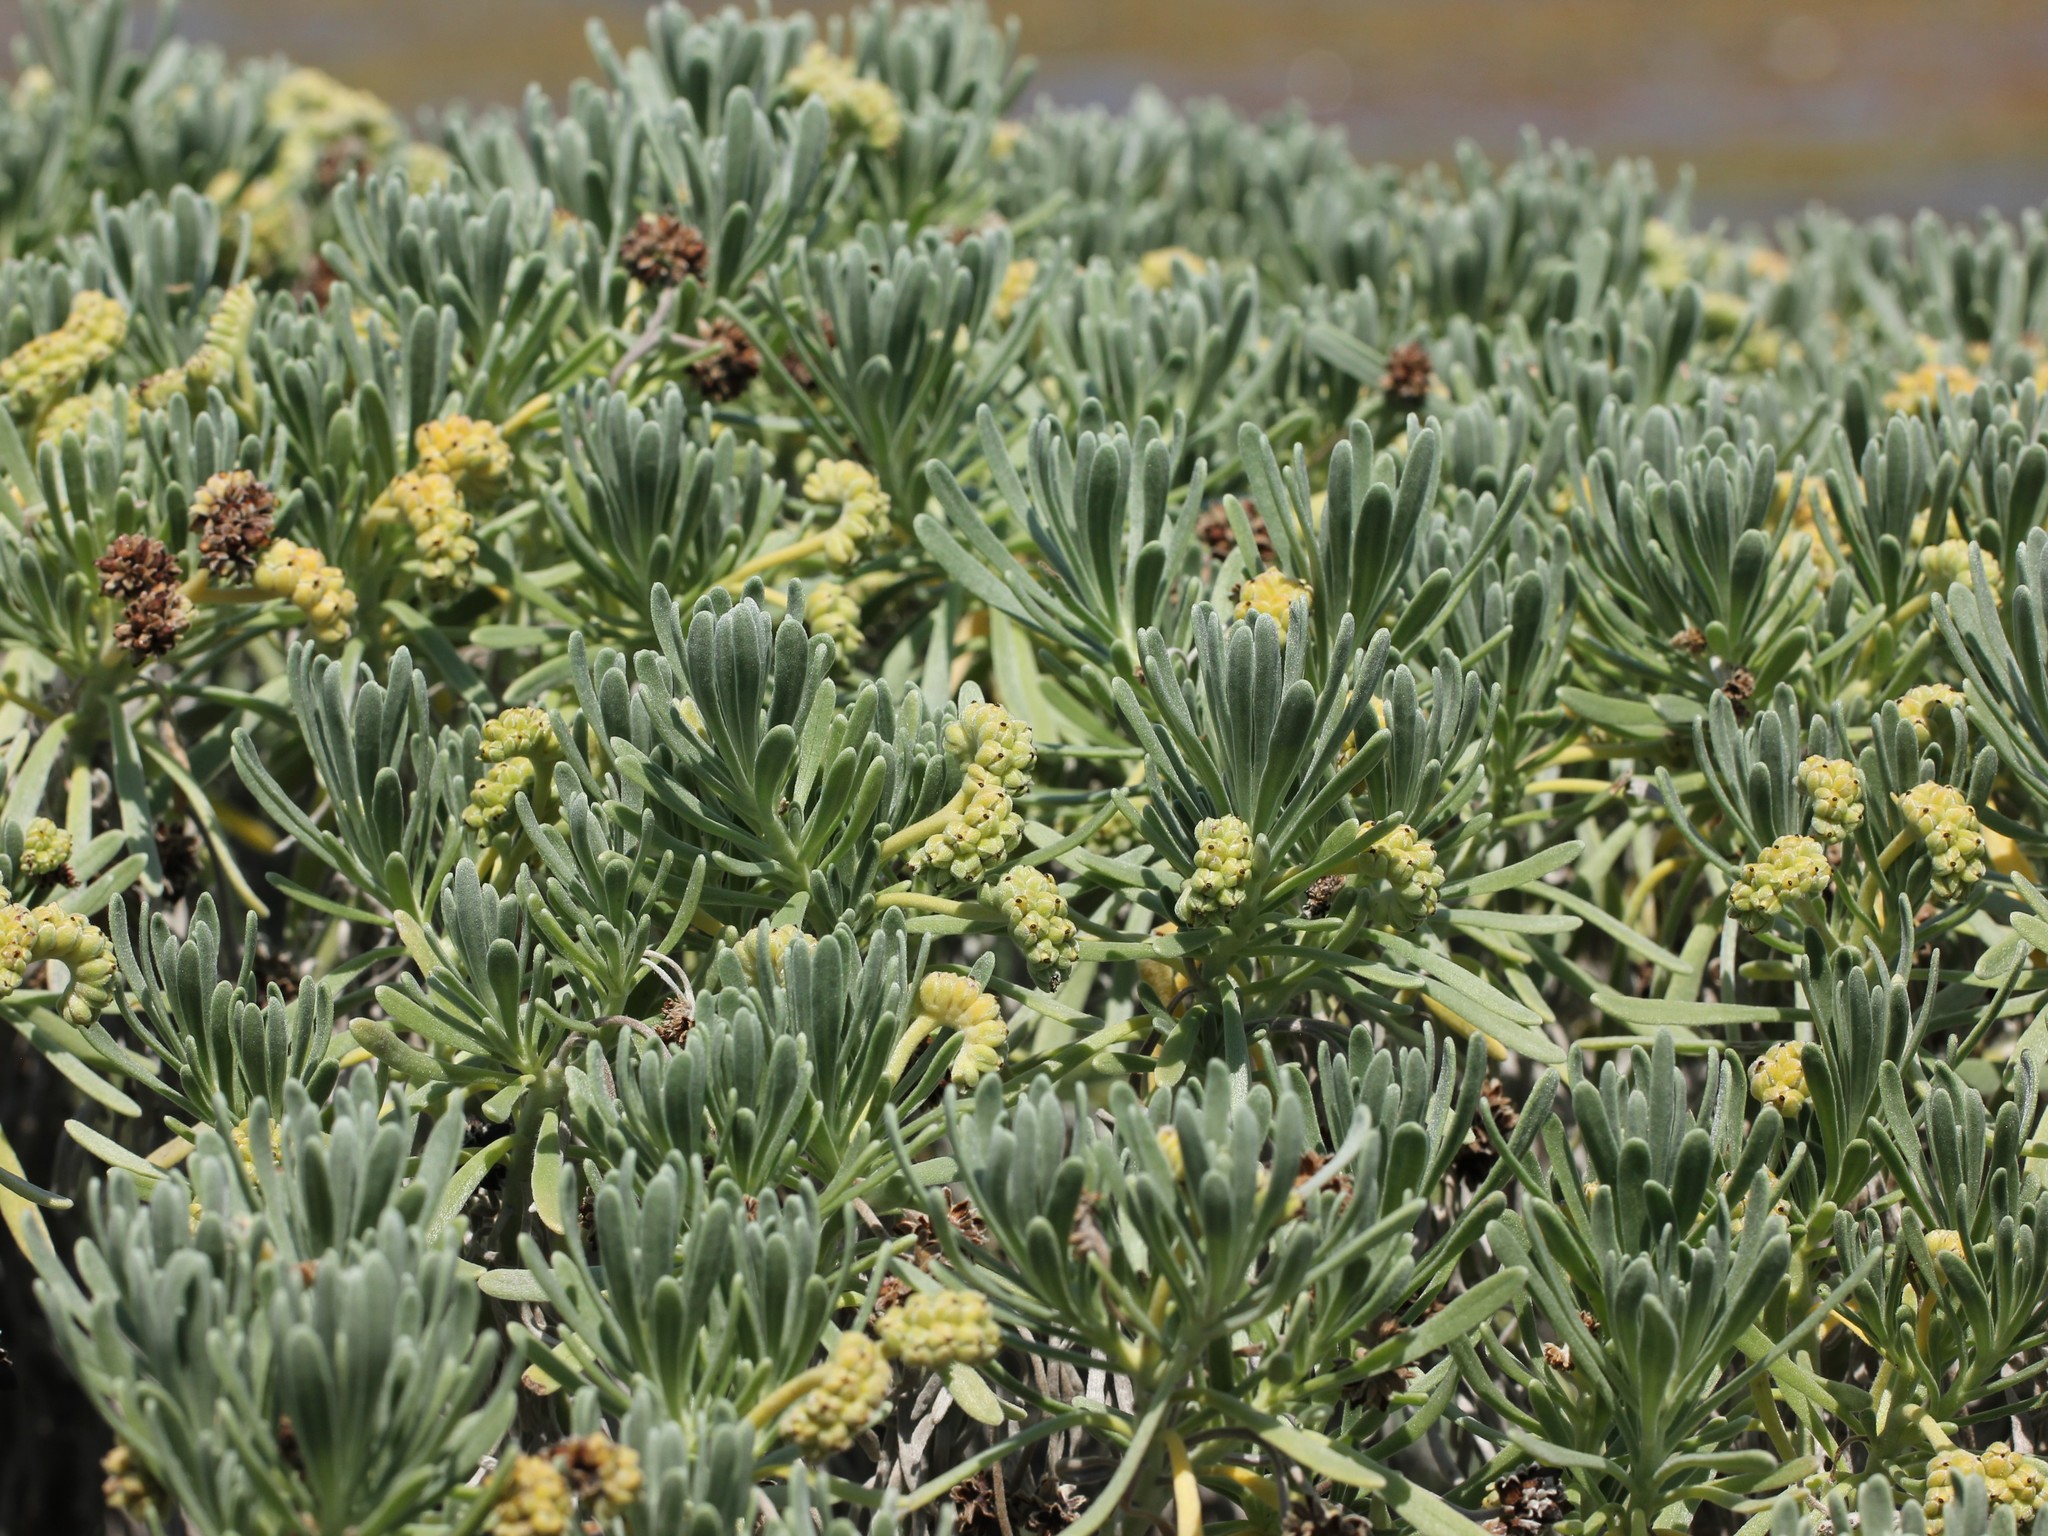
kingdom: Plantae
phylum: Tracheophyta
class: Magnoliopsida
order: Boraginales
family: Heliotropiaceae
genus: Tournefortia
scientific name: Tournefortia gnaphalodes
